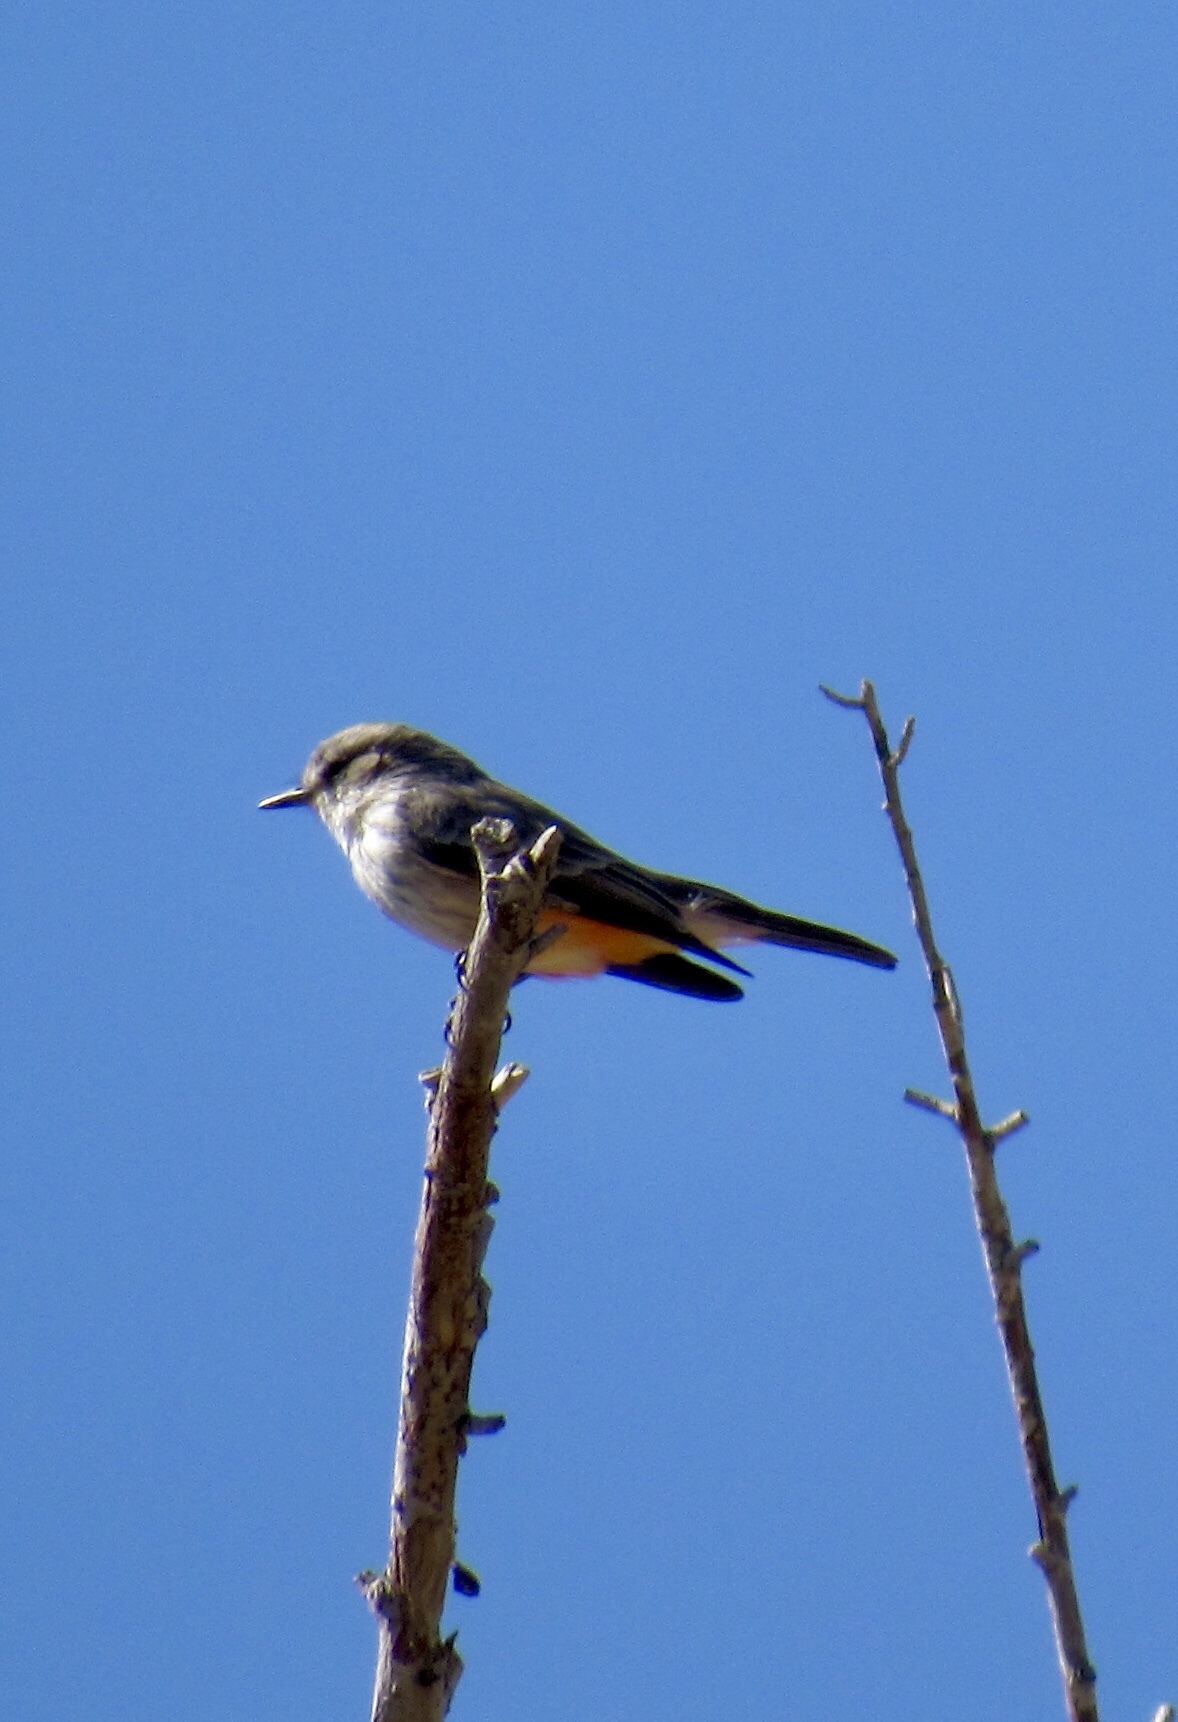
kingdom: Animalia
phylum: Chordata
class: Aves
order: Passeriformes
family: Tyrannidae
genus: Pyrocephalus
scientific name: Pyrocephalus rubinus
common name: Vermilion flycatcher
